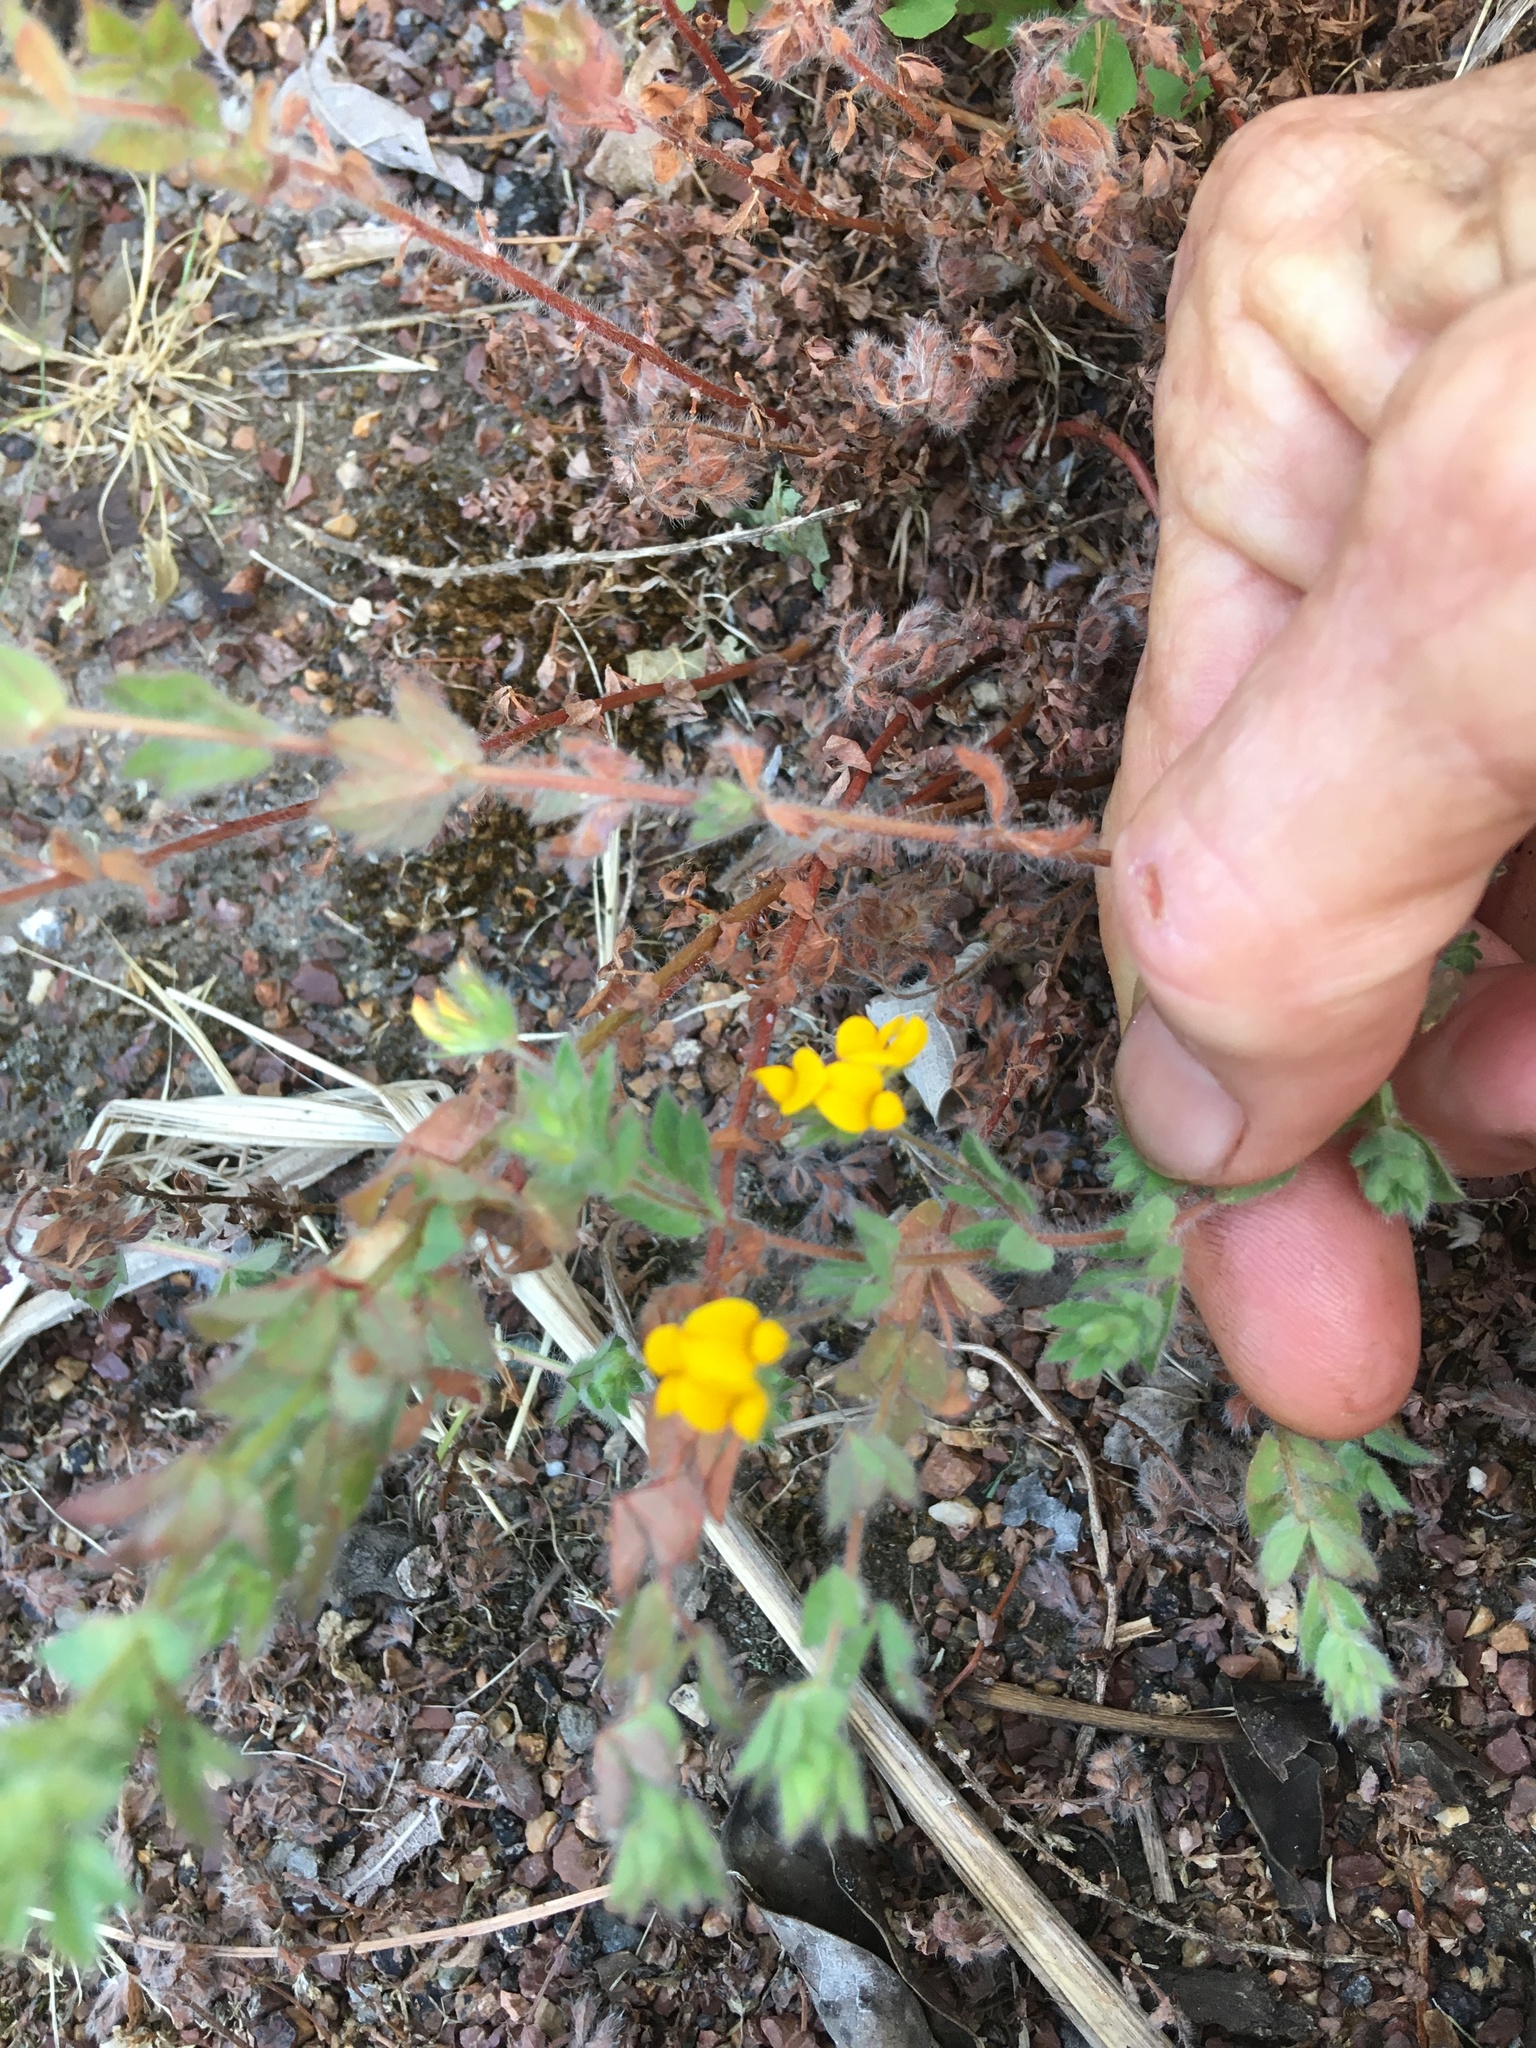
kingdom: Plantae
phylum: Tracheophyta
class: Magnoliopsida
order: Fabales
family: Fabaceae
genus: Lotus
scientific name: Lotus subbiflorus
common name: Hairy bird's-foot trefoil
